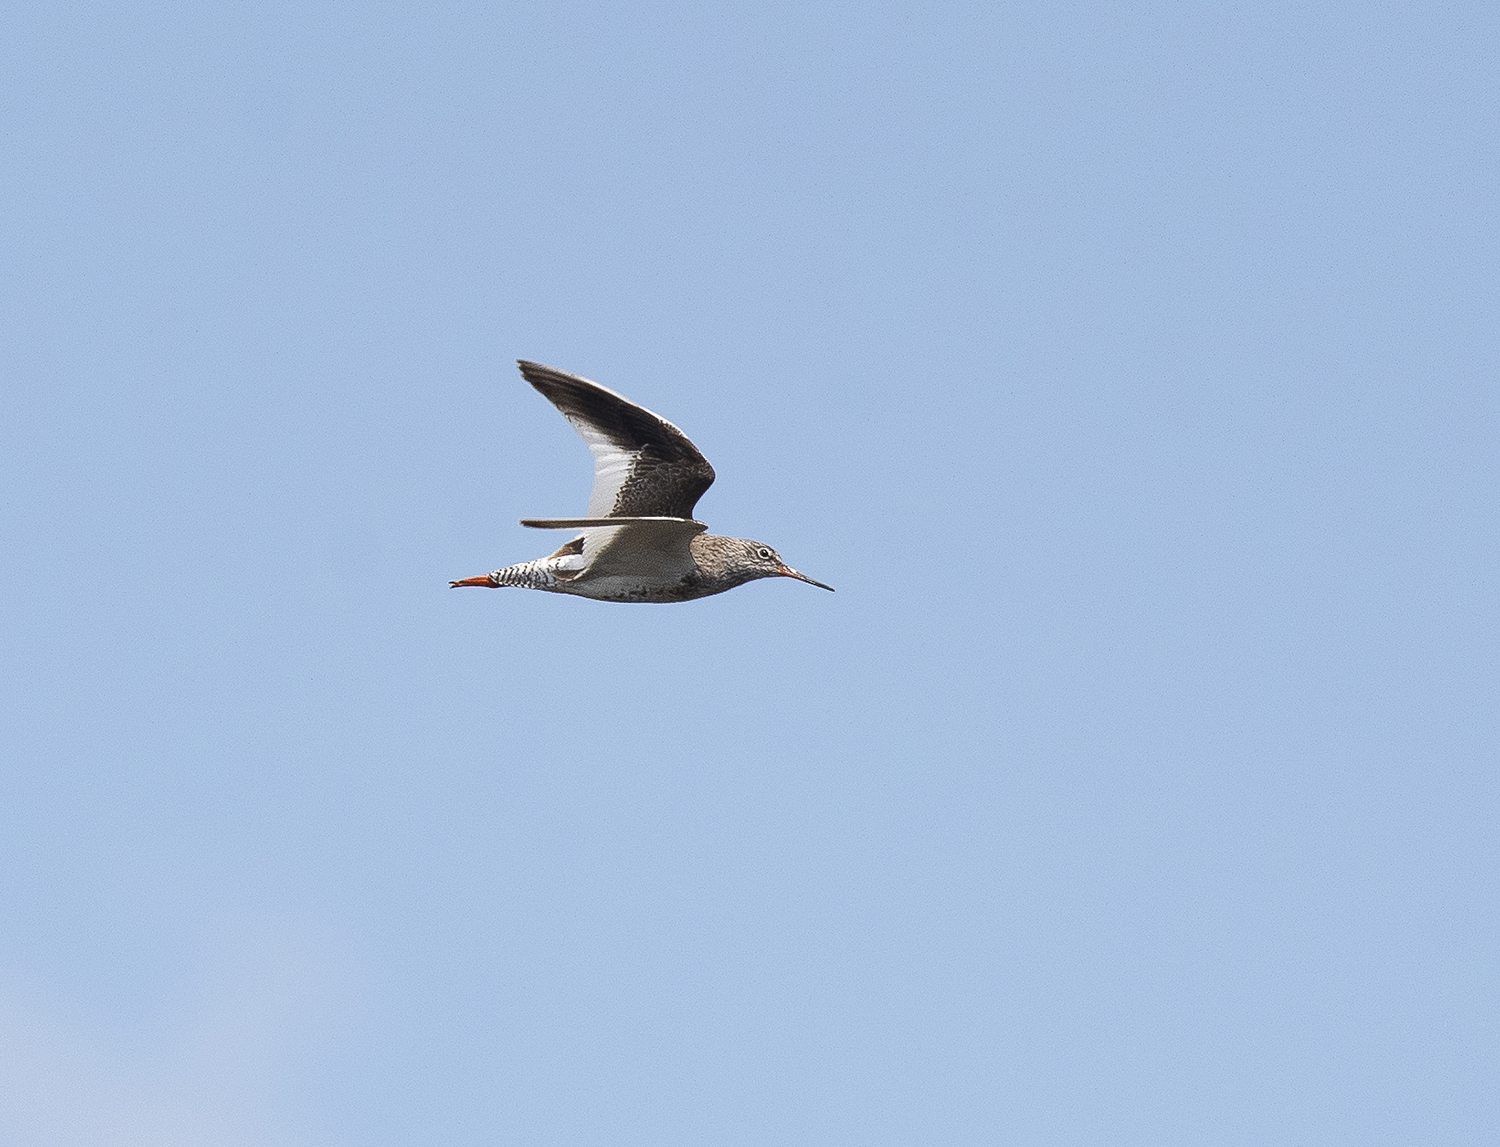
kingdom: Animalia
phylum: Chordata
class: Aves
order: Charadriiformes
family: Scolopacidae
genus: Tringa
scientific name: Tringa totanus
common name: Common redshank
